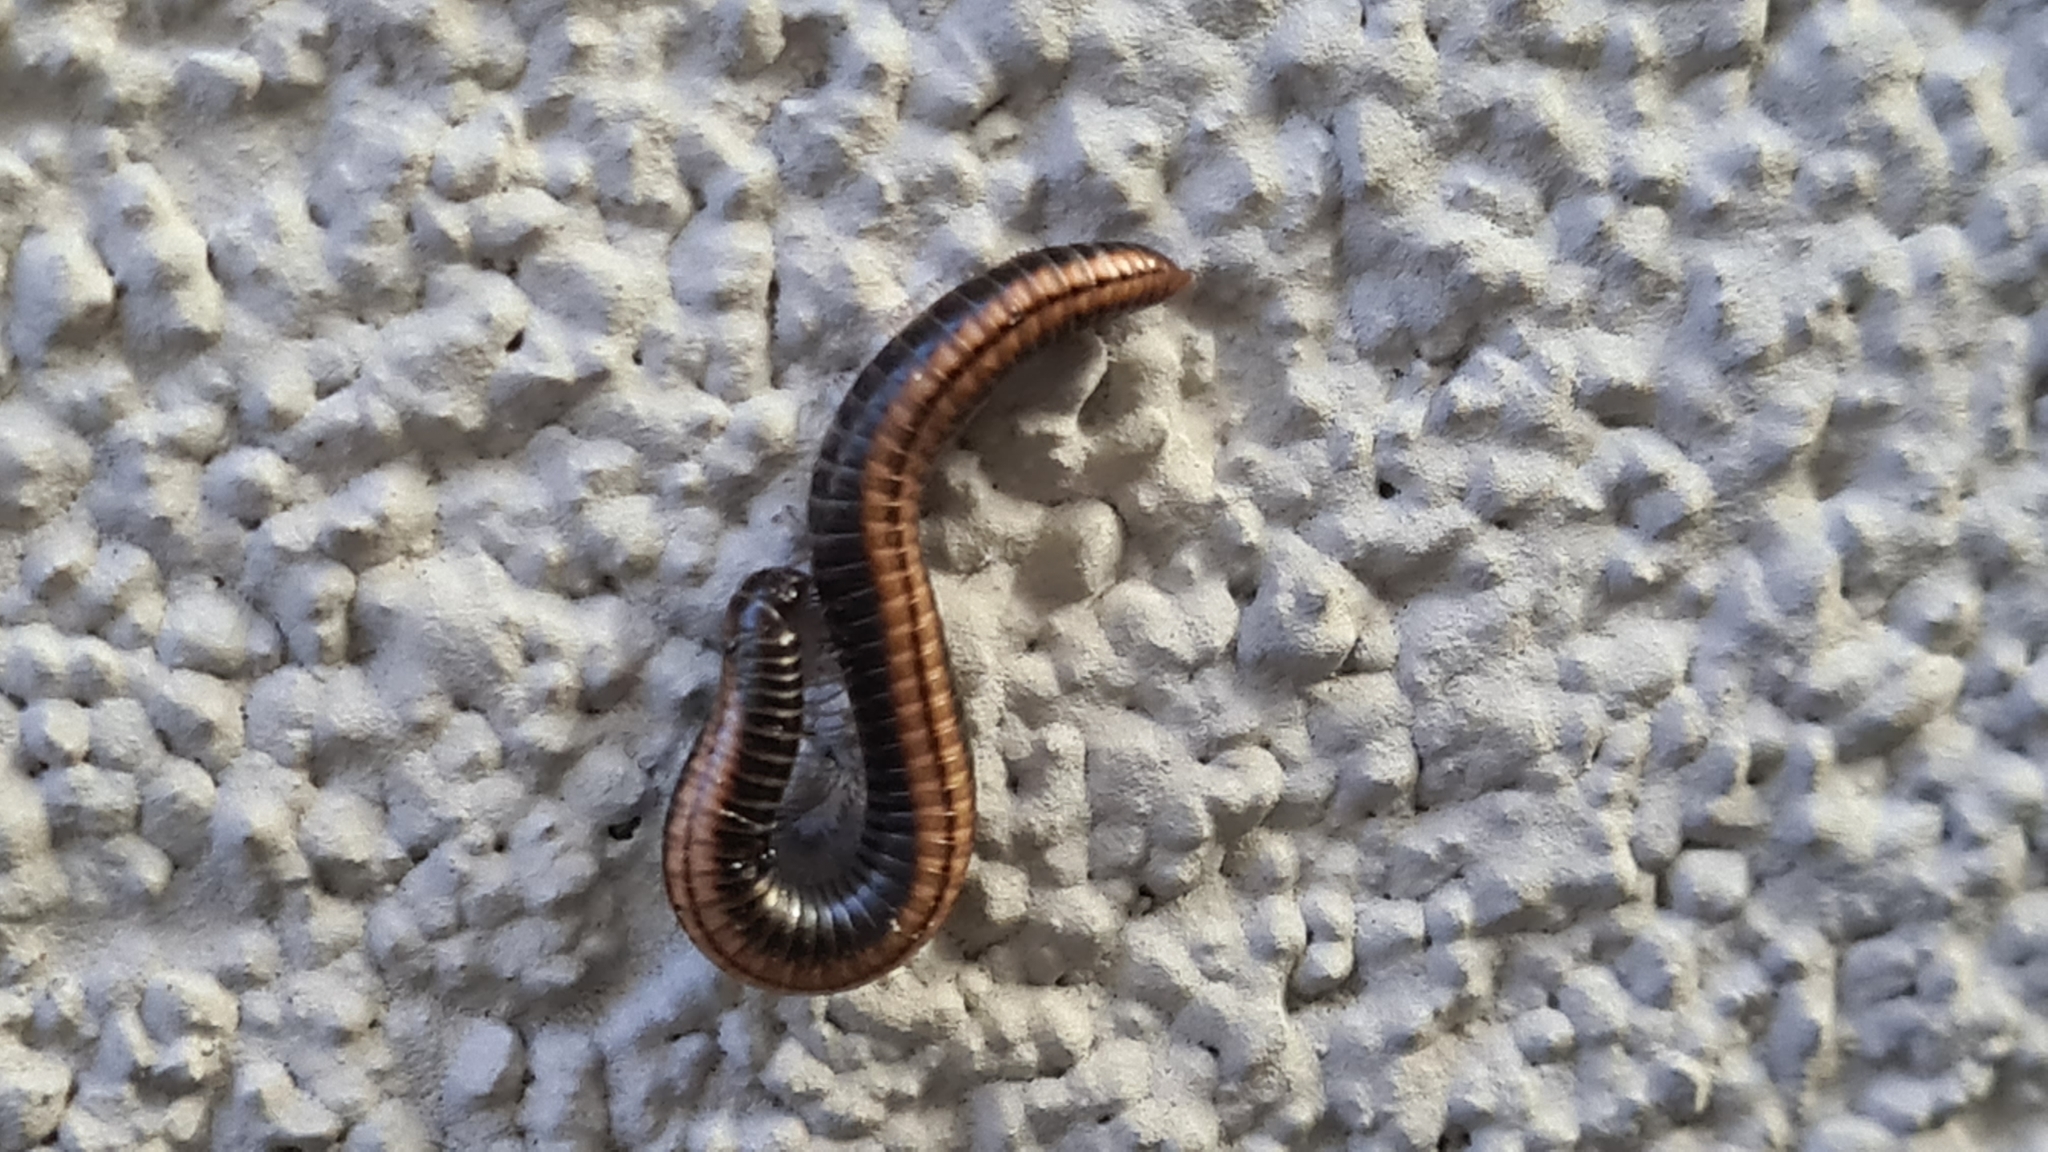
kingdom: Animalia
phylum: Arthropoda
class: Diplopoda
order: Julida
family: Julidae
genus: Ommatoiulus
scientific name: Ommatoiulus sabulosus
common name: Striped millipede
